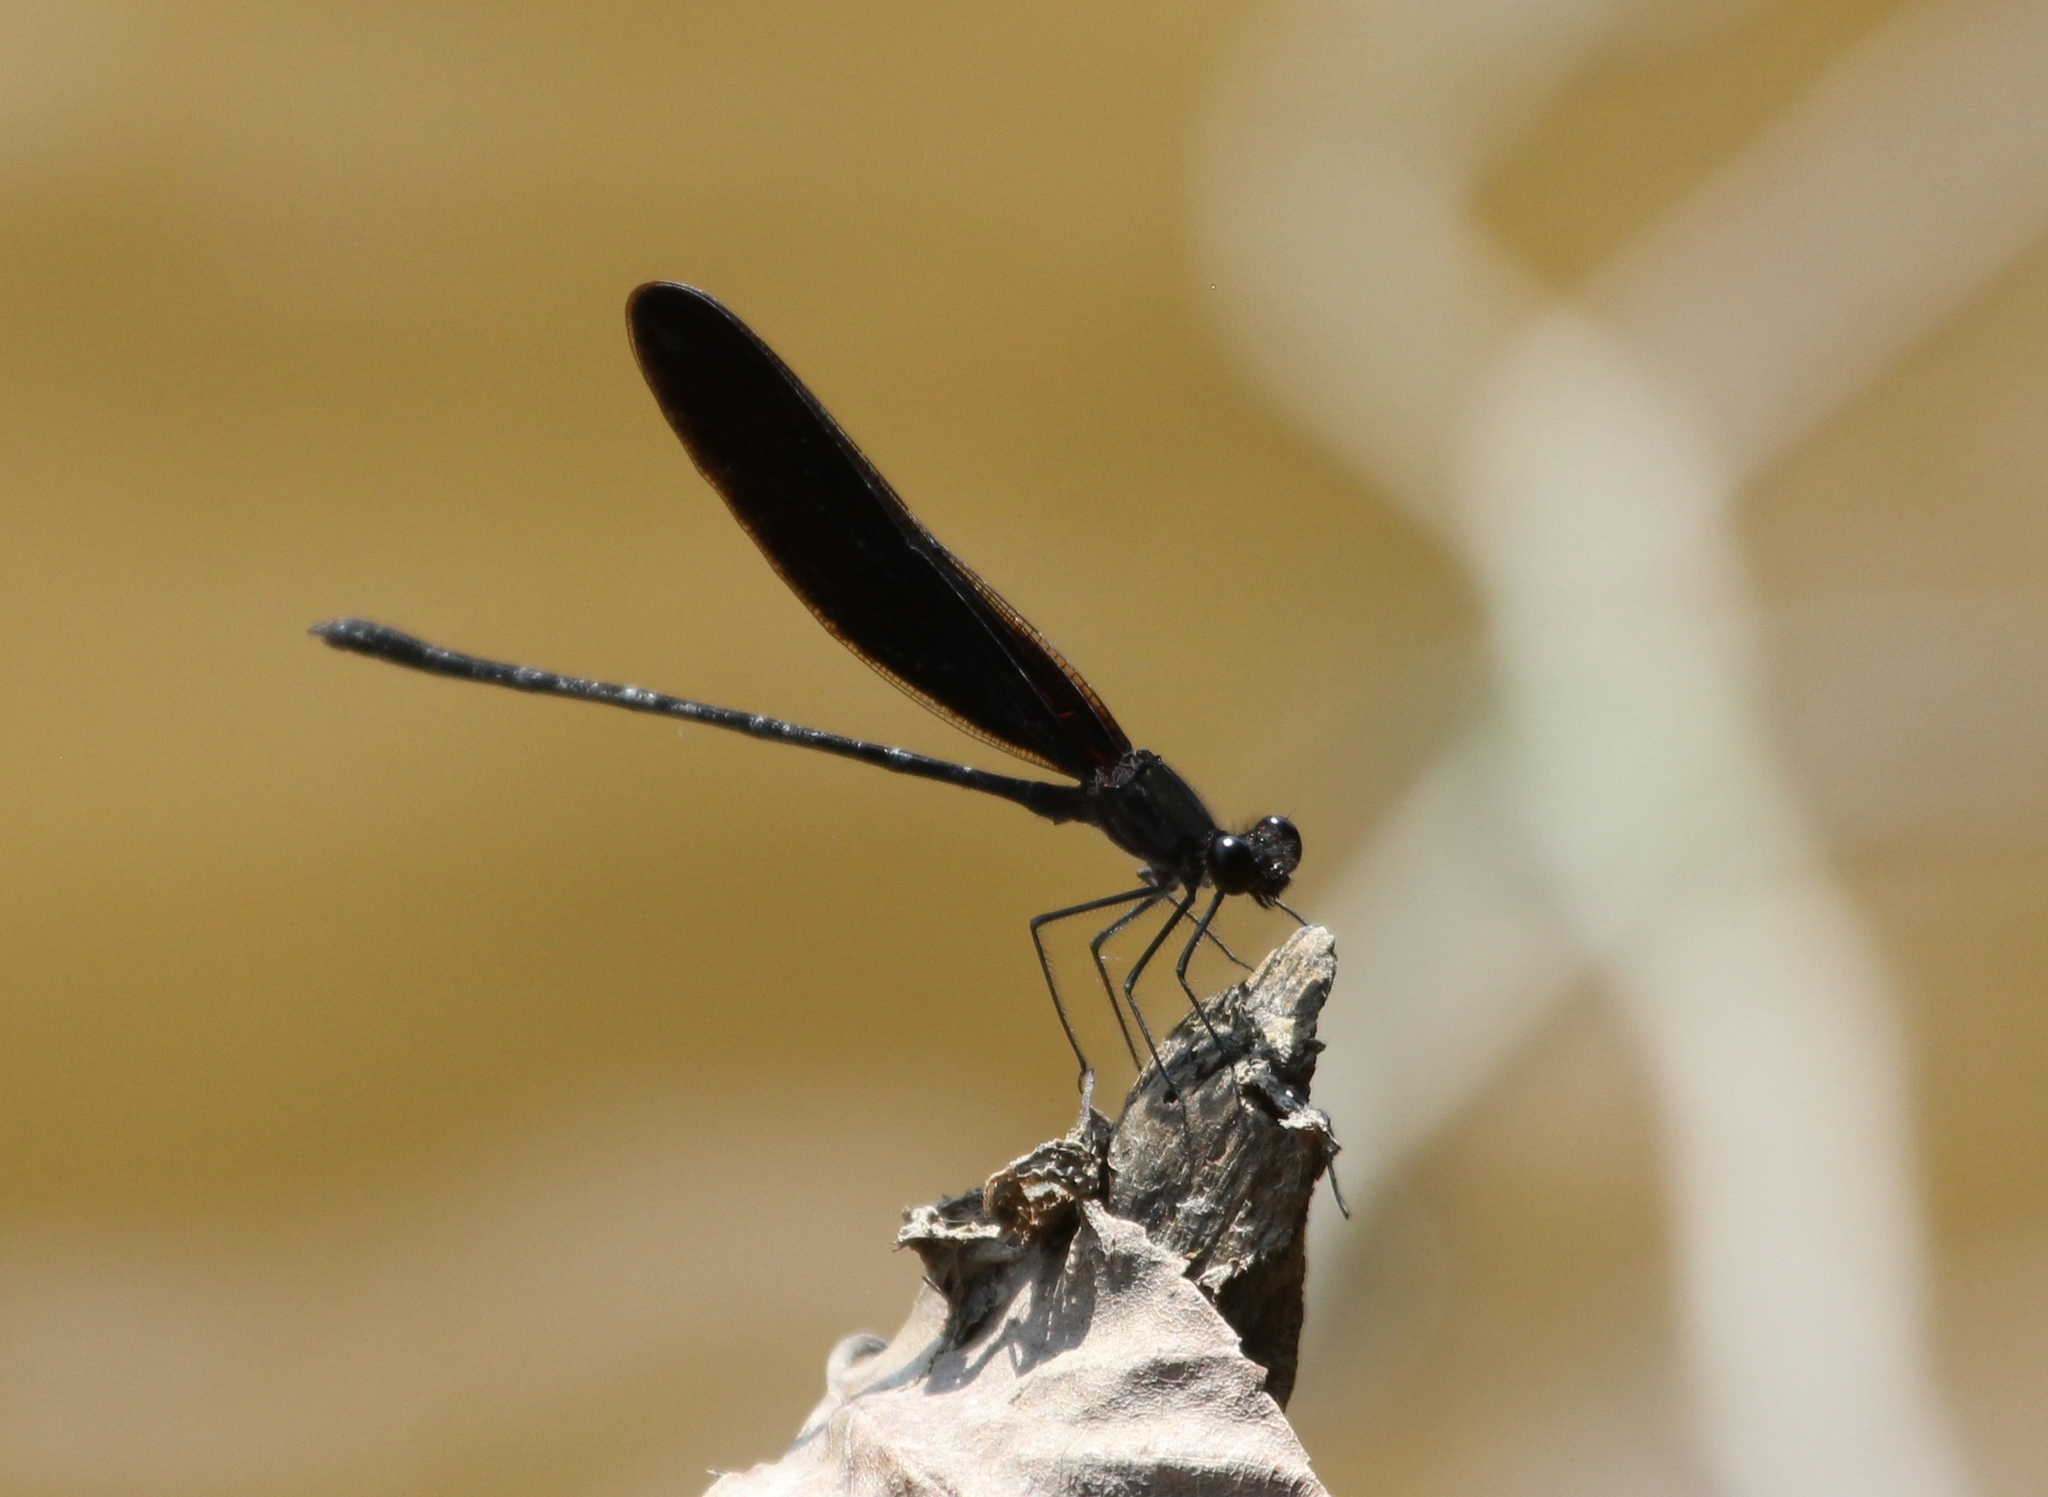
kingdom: Animalia
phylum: Arthropoda
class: Insecta
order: Odonata
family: Calopterygidae
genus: Hetaerina
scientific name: Hetaerina titia
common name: Smoky rubyspot
